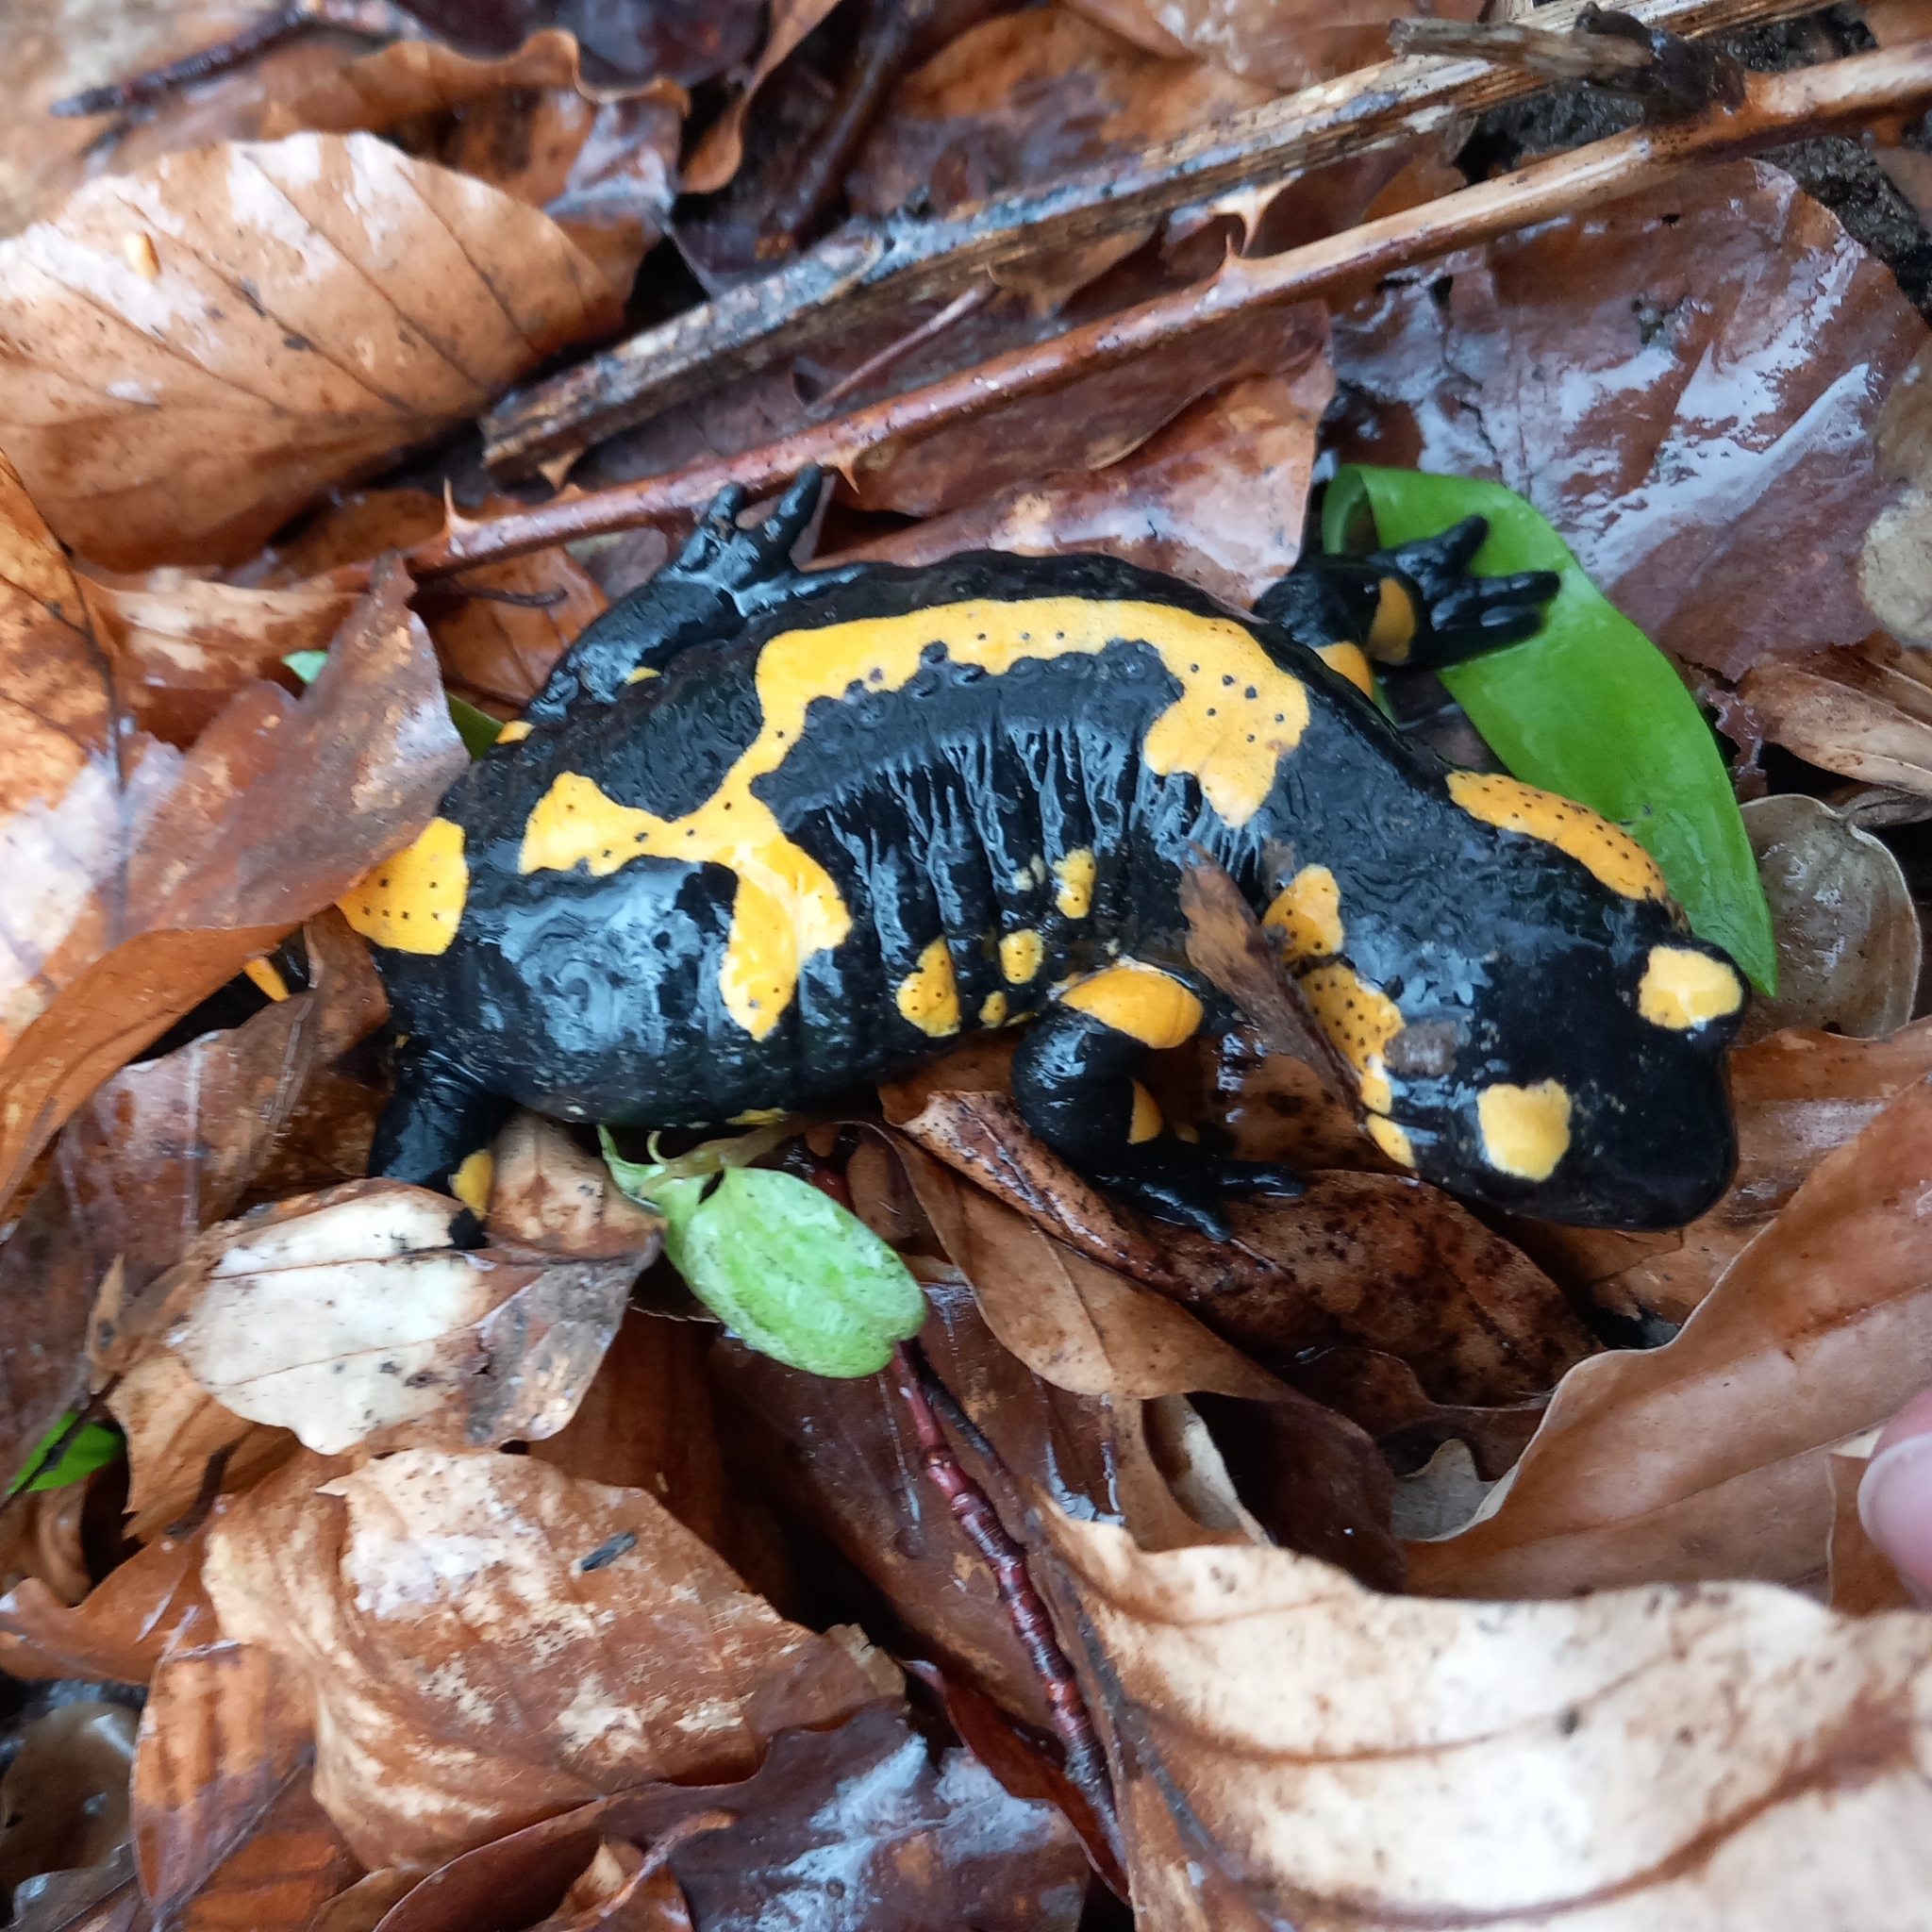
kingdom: Animalia
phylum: Chordata
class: Amphibia
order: Caudata
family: Salamandridae
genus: Salamandra
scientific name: Salamandra salamandra
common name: Fire salamander
